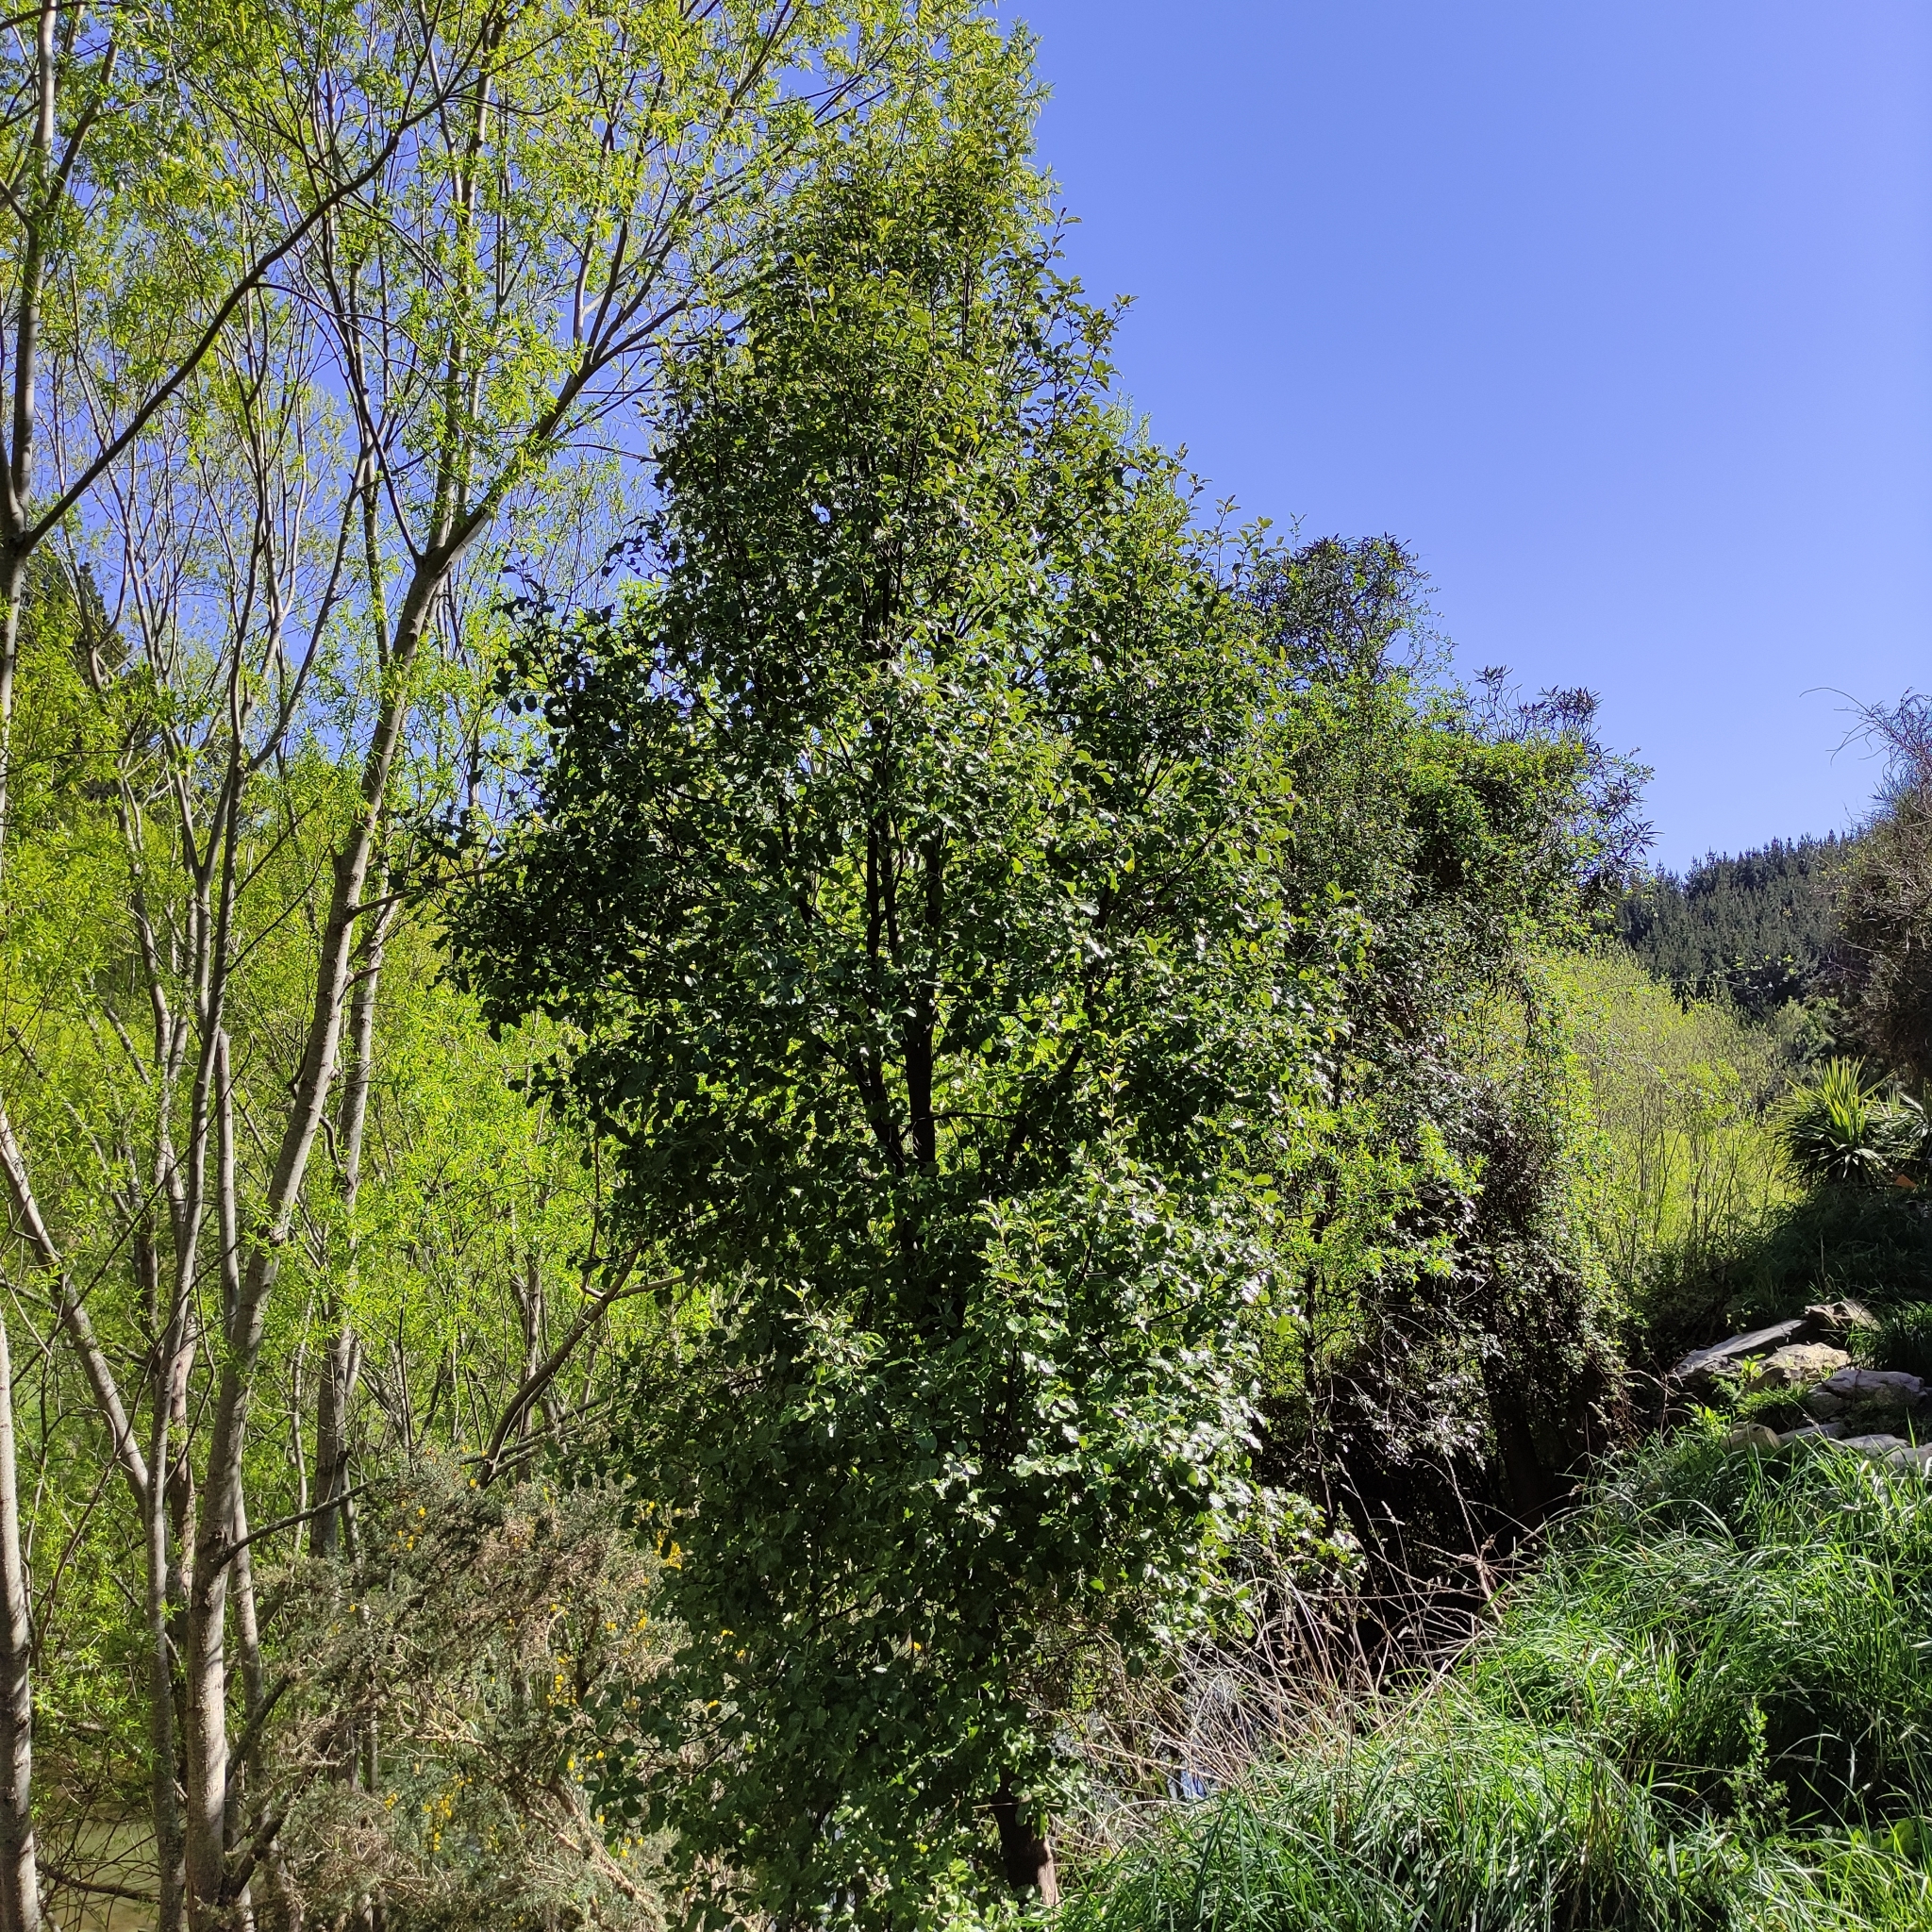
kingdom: Plantae
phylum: Tracheophyta
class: Magnoliopsida
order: Apiales
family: Pittosporaceae
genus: Pittosporum
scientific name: Pittosporum tenuifolium
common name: Kohuhu
